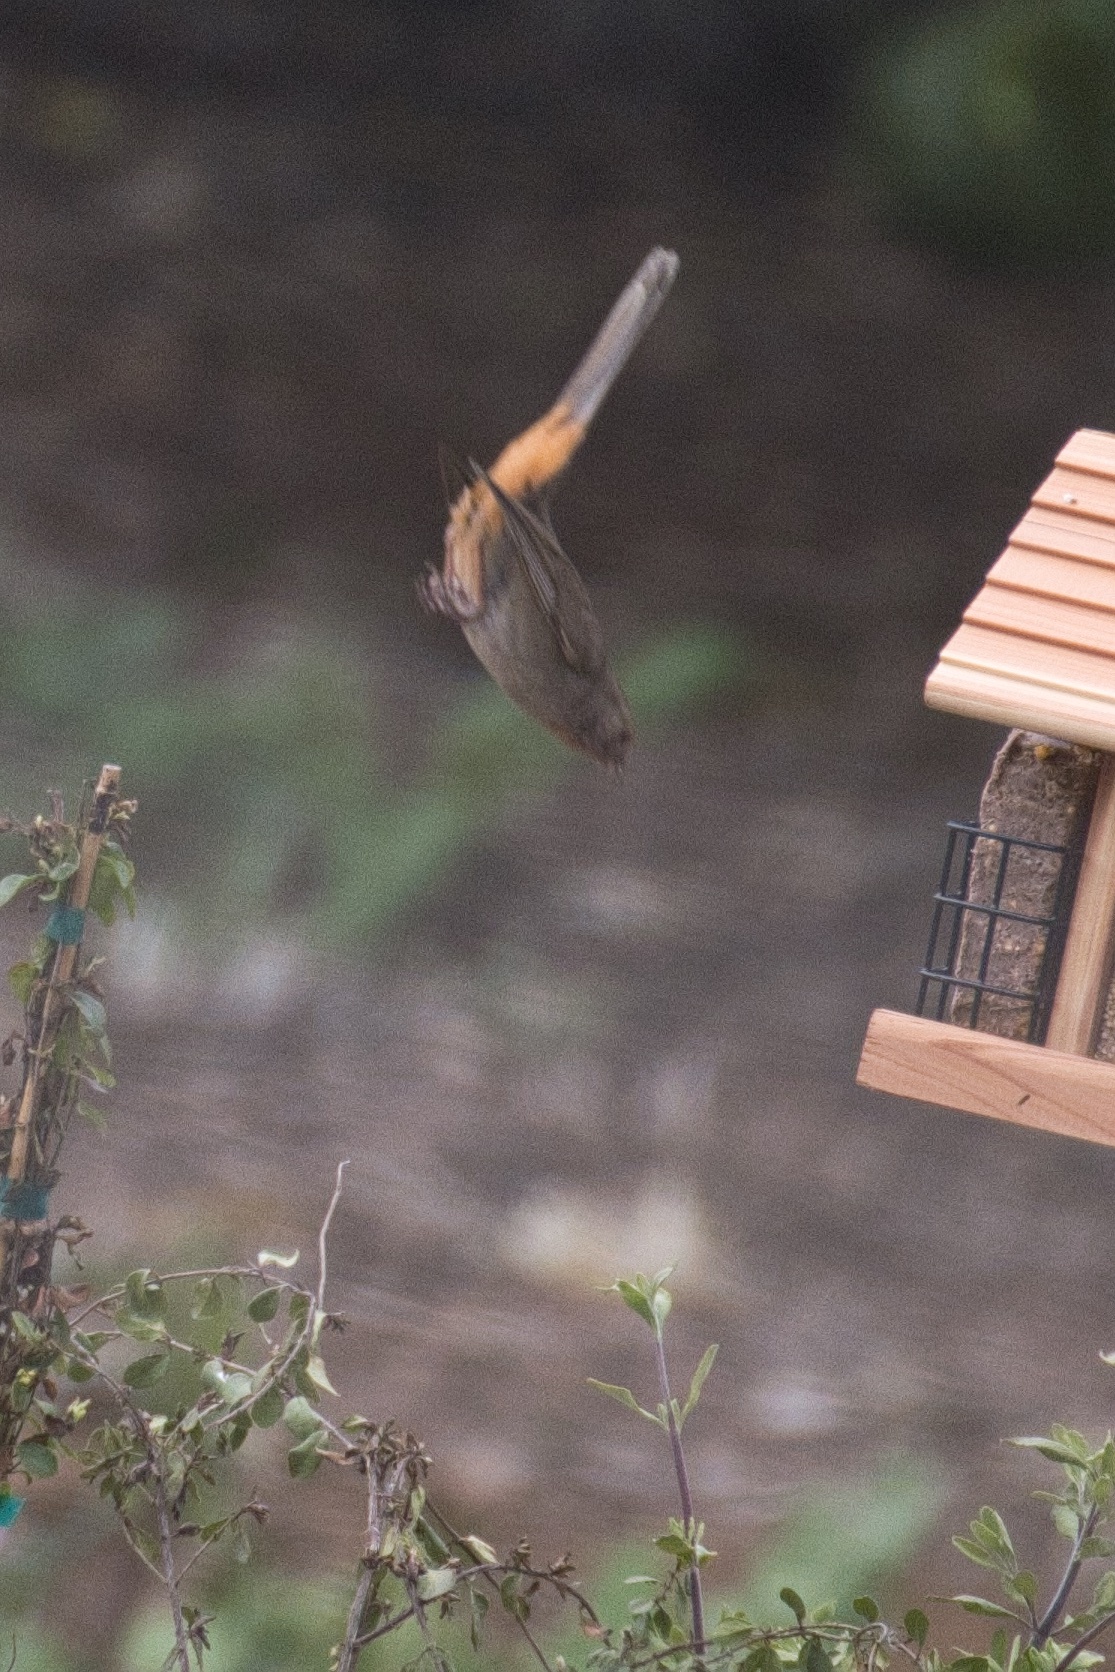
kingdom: Animalia
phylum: Chordata
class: Aves
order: Passeriformes
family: Passerellidae
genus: Melozone
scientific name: Melozone crissalis
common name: California towhee
